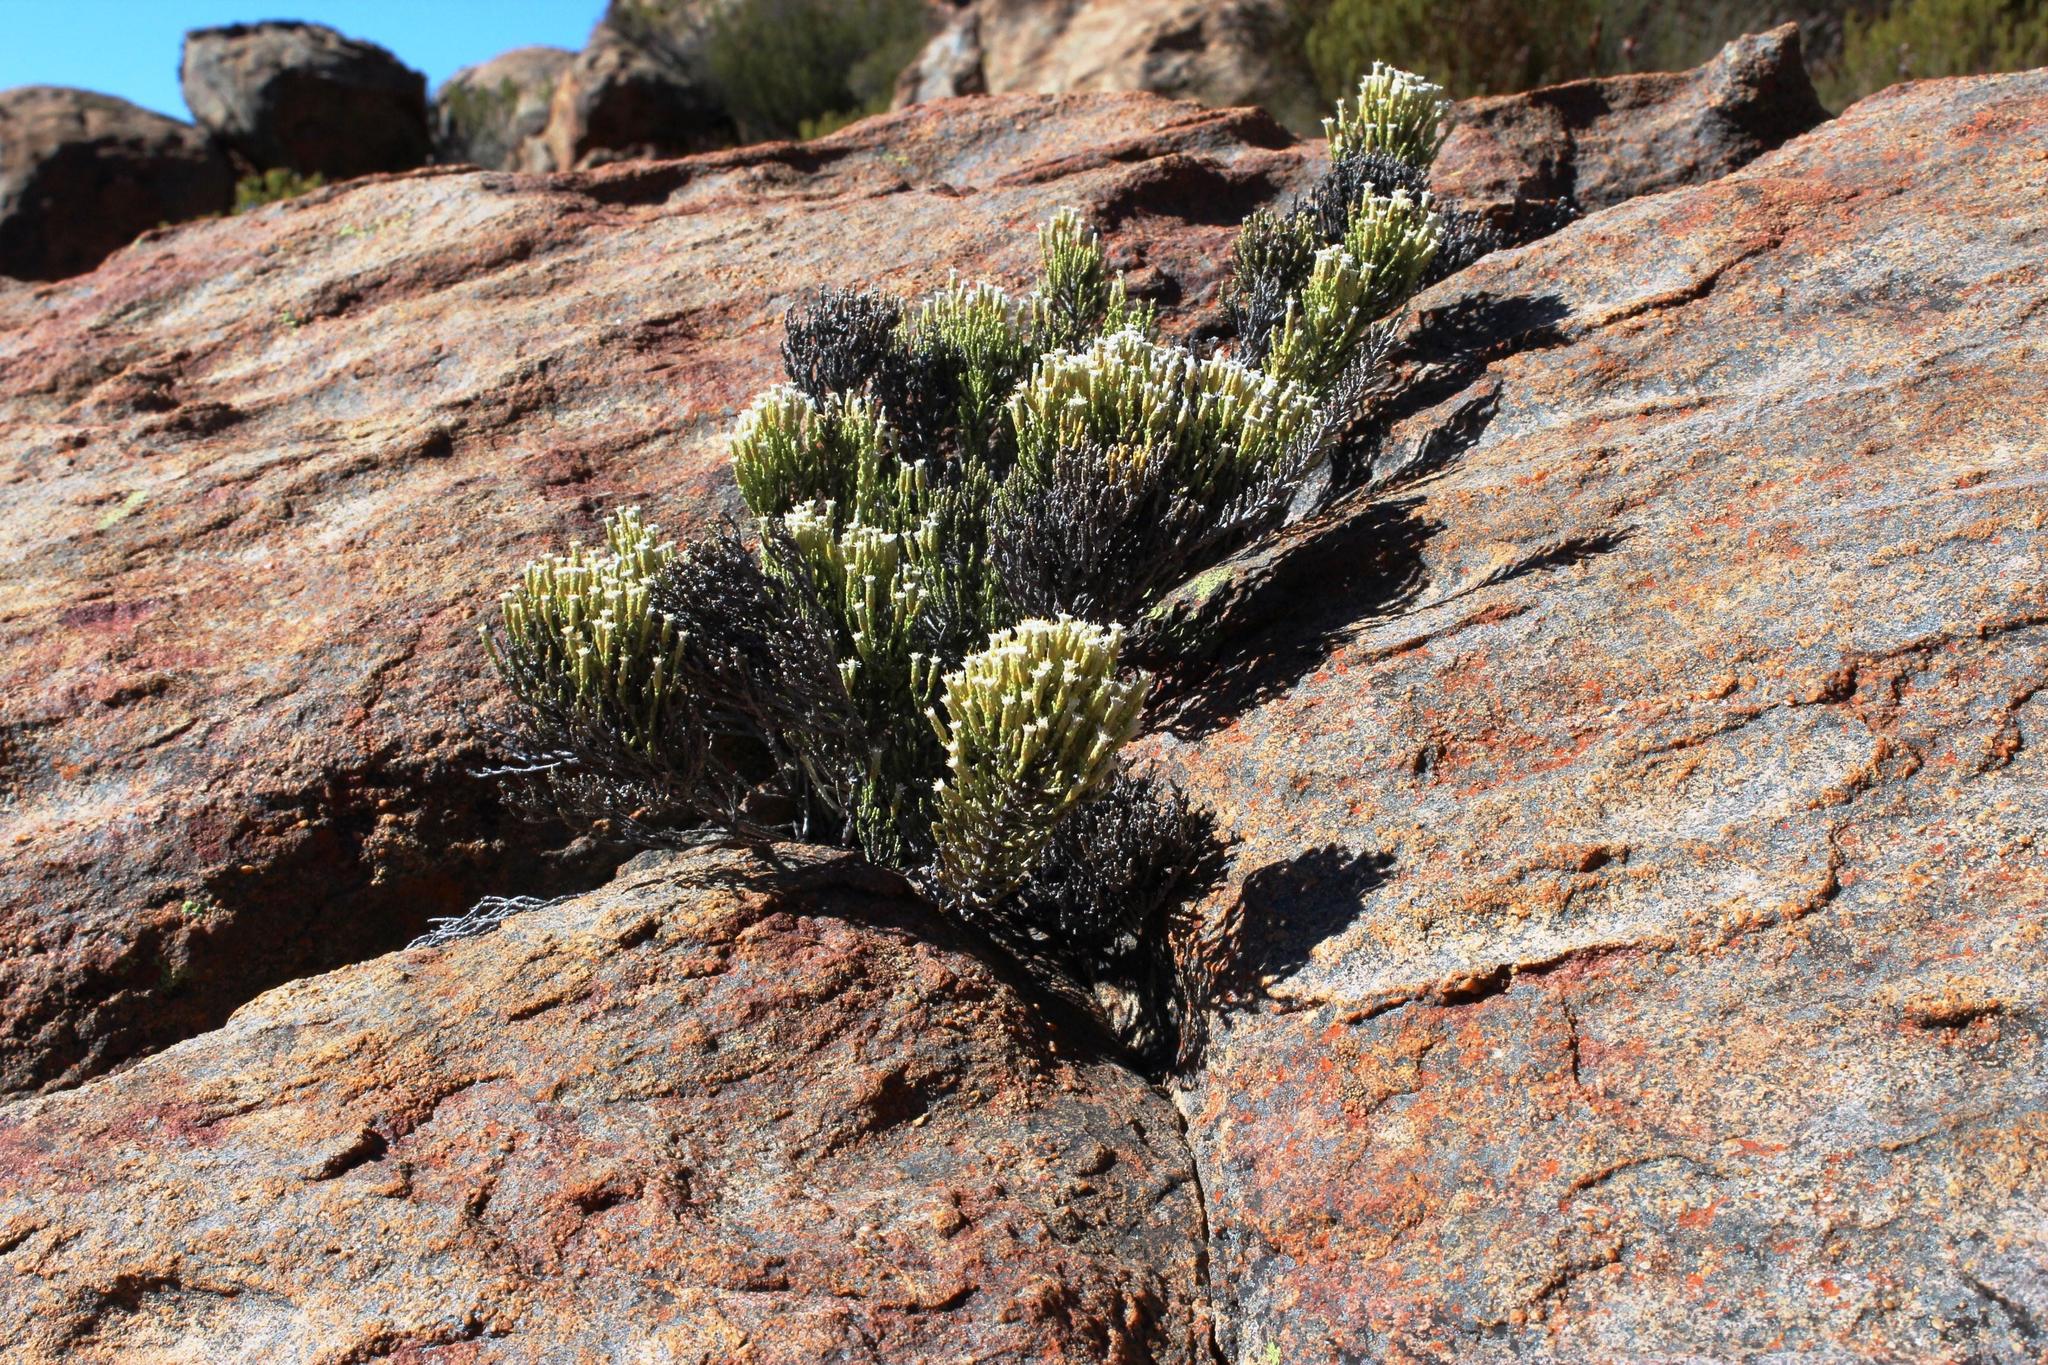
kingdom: Plantae
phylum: Tracheophyta
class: Magnoliopsida
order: Asterales
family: Asteraceae
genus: Dolichothrix
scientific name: Dolichothrix ericoides
